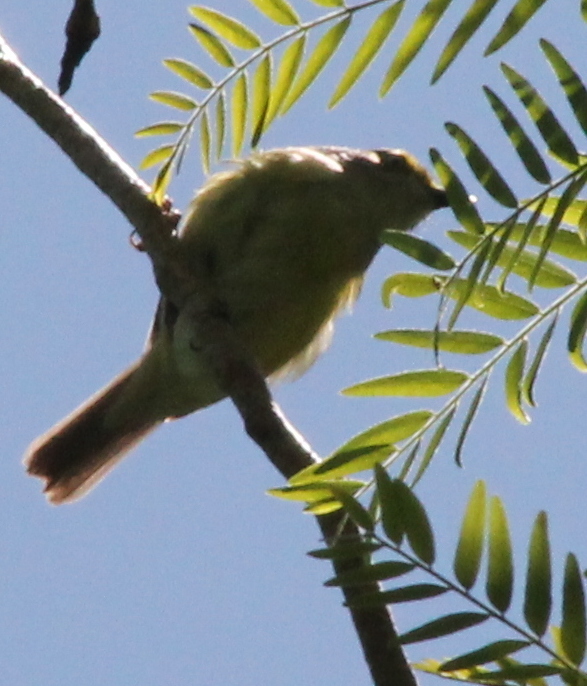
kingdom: Animalia
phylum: Chordata
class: Aves
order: Passeriformes
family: Vireonidae
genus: Vireo
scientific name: Vireo griseus
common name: White-eyed vireo
